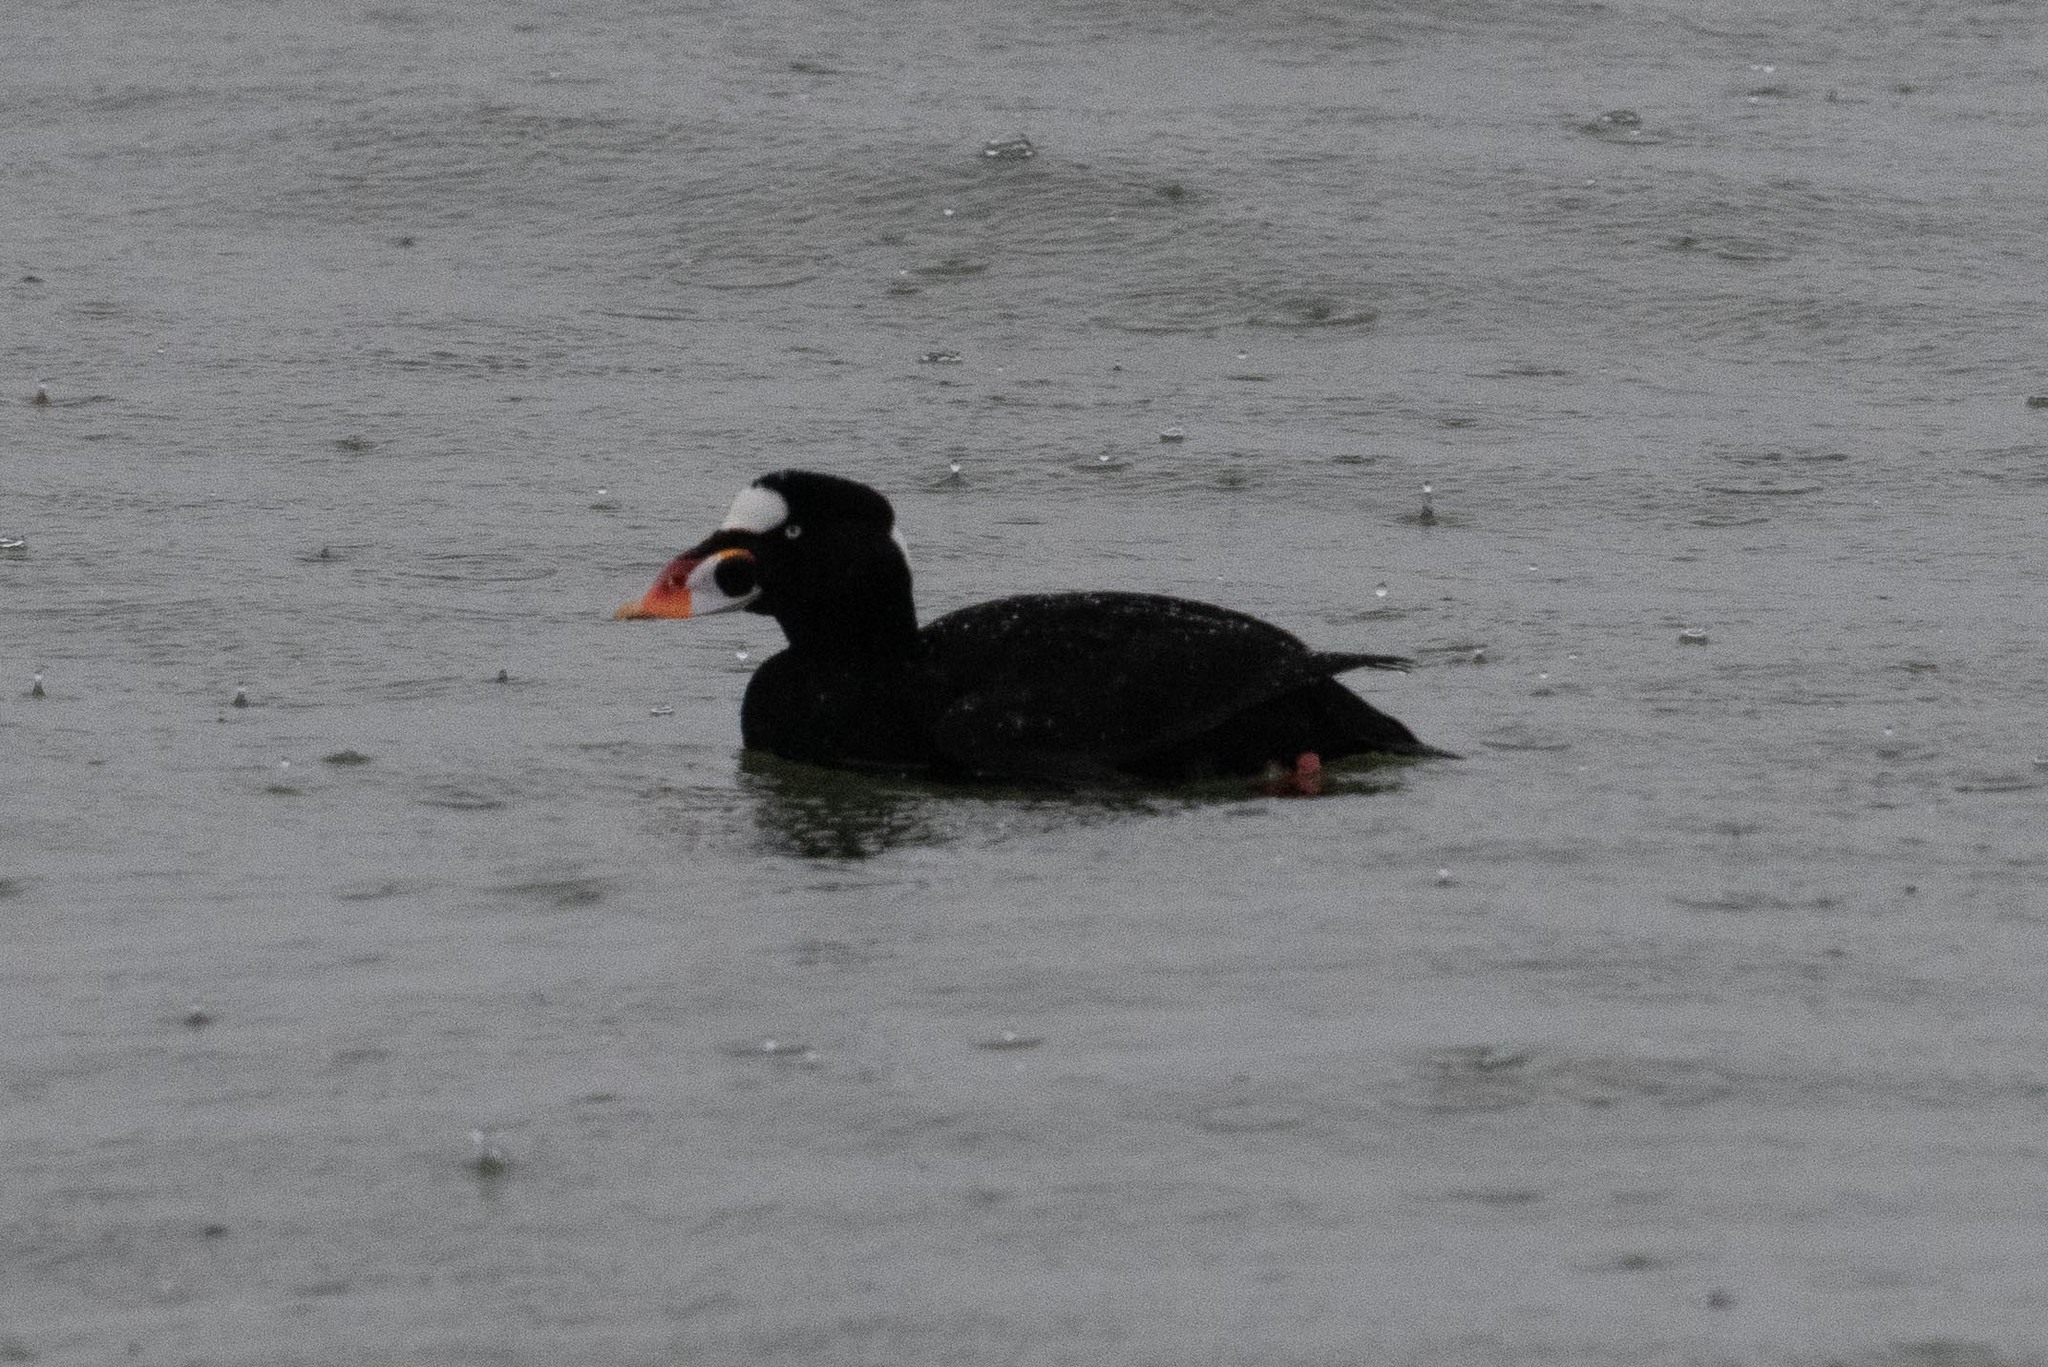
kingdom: Animalia
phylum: Chordata
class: Aves
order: Anseriformes
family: Anatidae
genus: Melanitta
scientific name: Melanitta perspicillata
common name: Surf scoter
